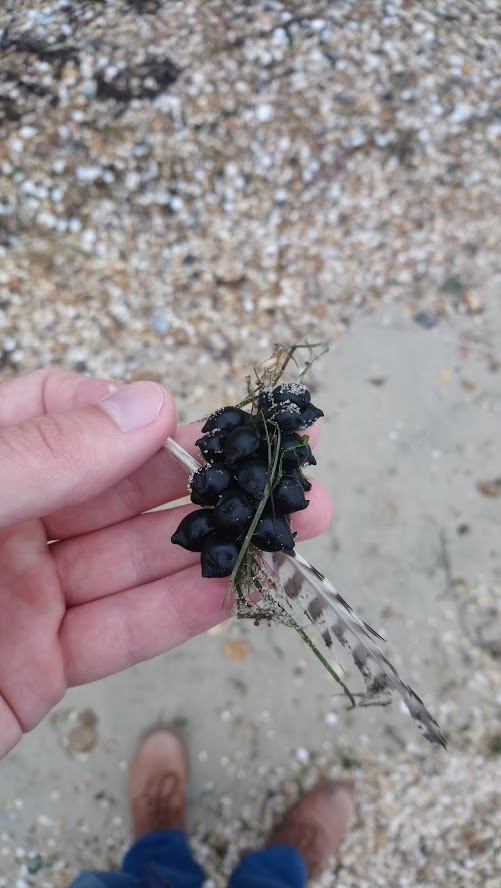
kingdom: Animalia
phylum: Mollusca
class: Cephalopoda
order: Sepiida
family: Sepiidae
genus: Sepia
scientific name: Sepia officinalis
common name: Common cuttlefish
